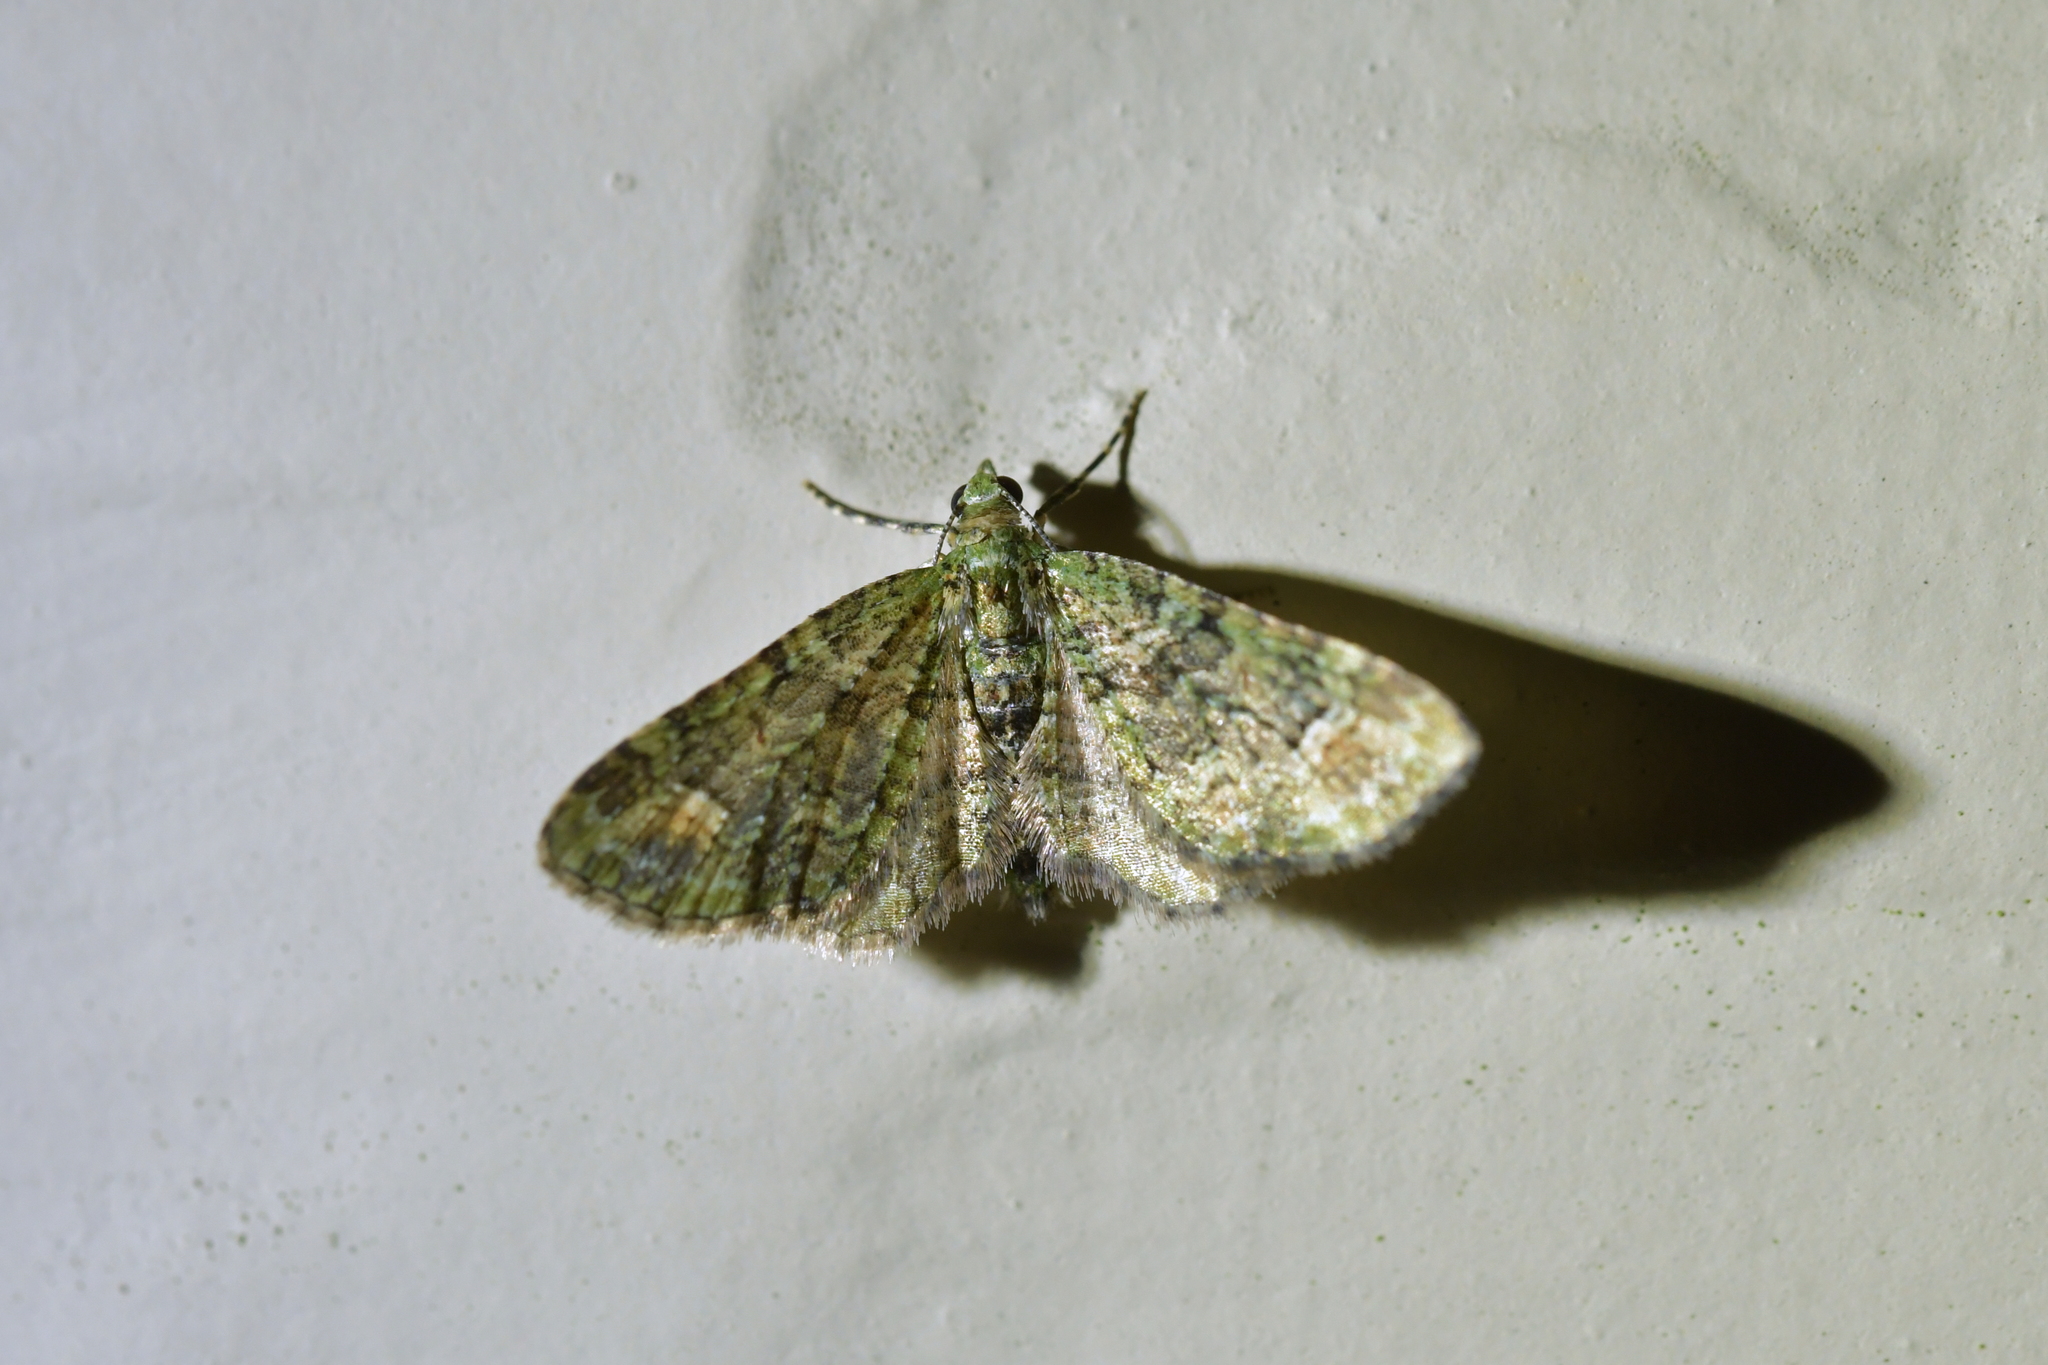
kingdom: Animalia
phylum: Arthropoda
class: Insecta
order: Lepidoptera
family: Geometridae
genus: Idaea
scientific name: Idaea mutanda
